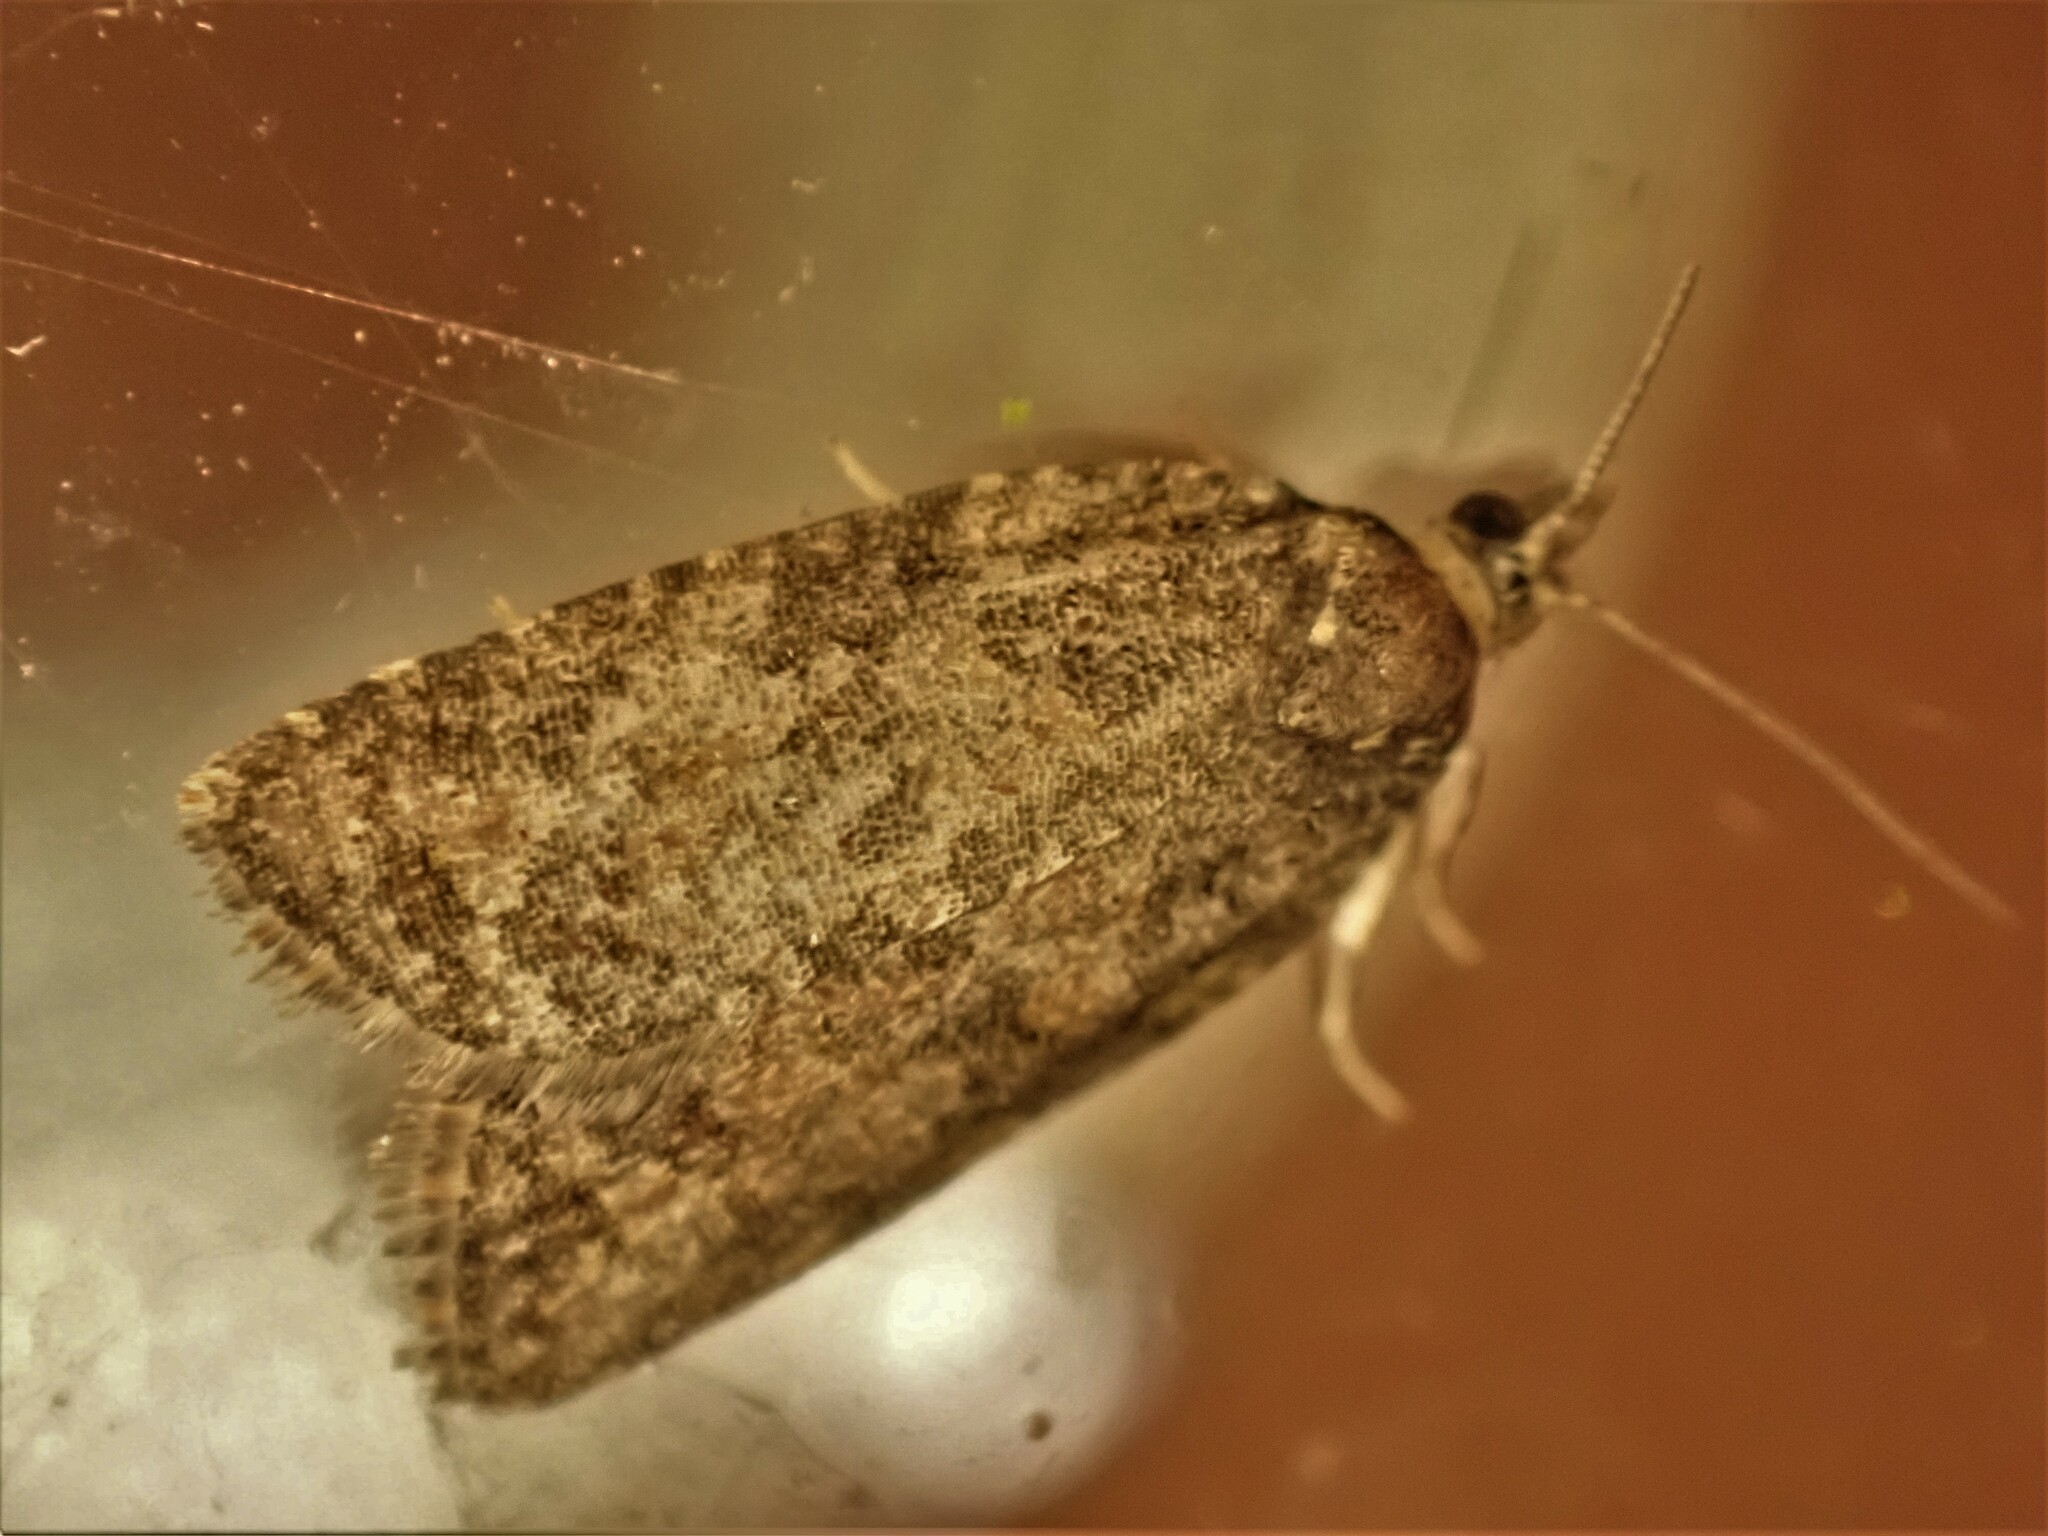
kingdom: Animalia
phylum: Arthropoda
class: Insecta
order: Lepidoptera
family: Tortricidae
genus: Capua
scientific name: Capua intractana
